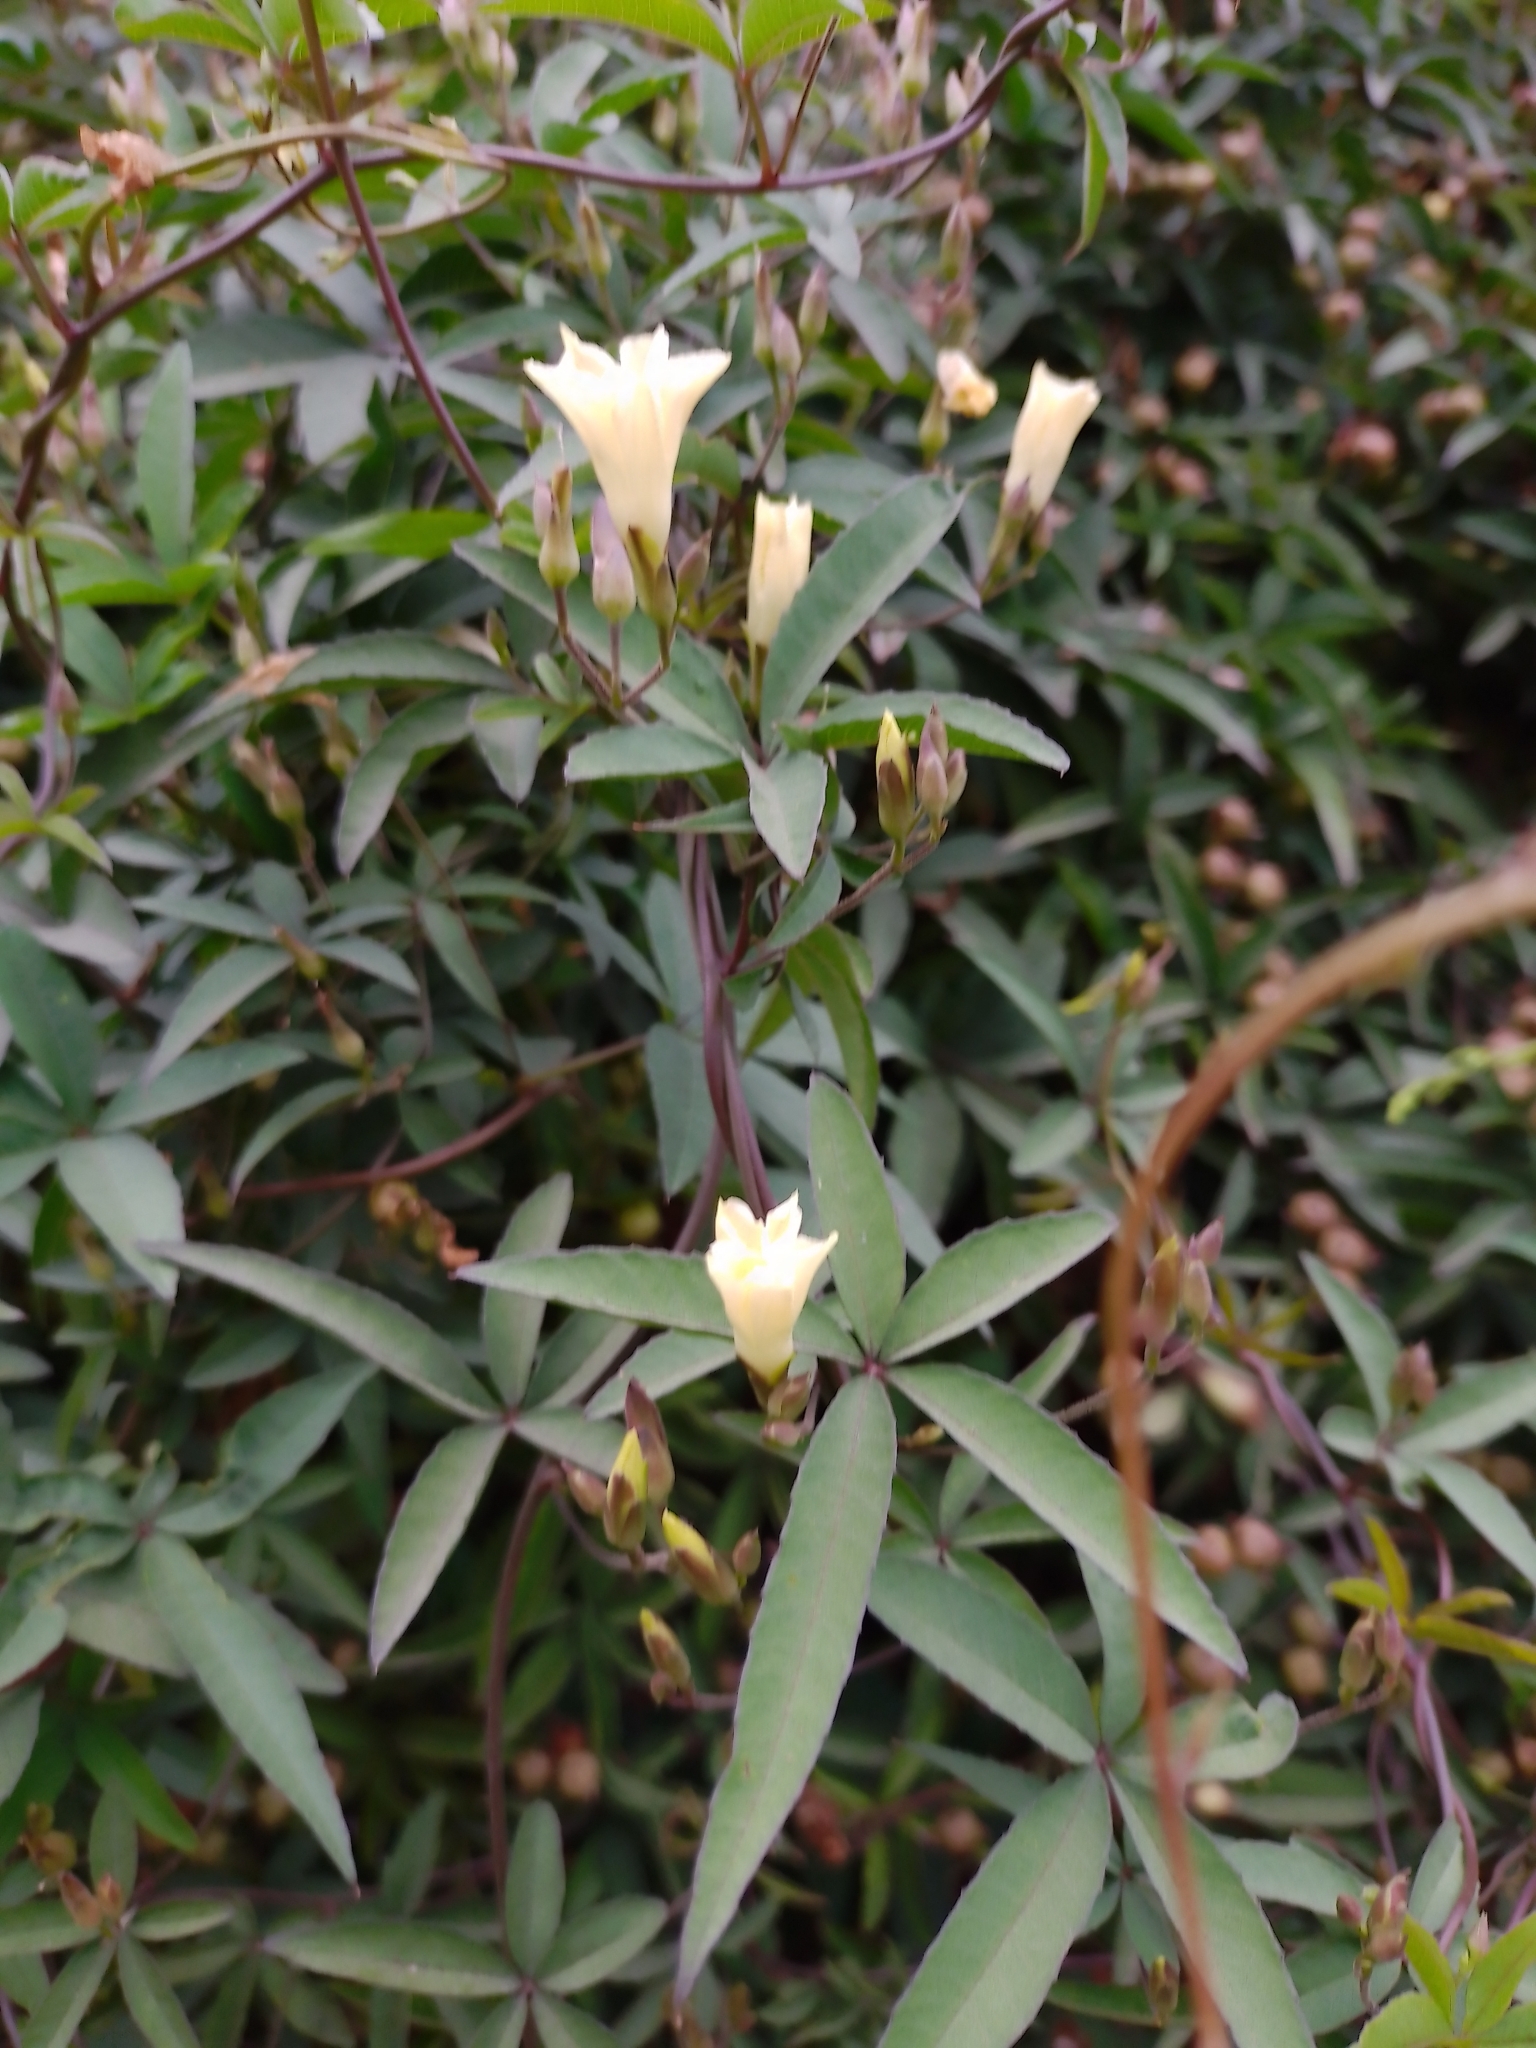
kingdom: Plantae
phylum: Tracheophyta
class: Magnoliopsida
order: Solanales
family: Convolvulaceae
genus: Distimake
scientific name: Distimake quinquefolius
